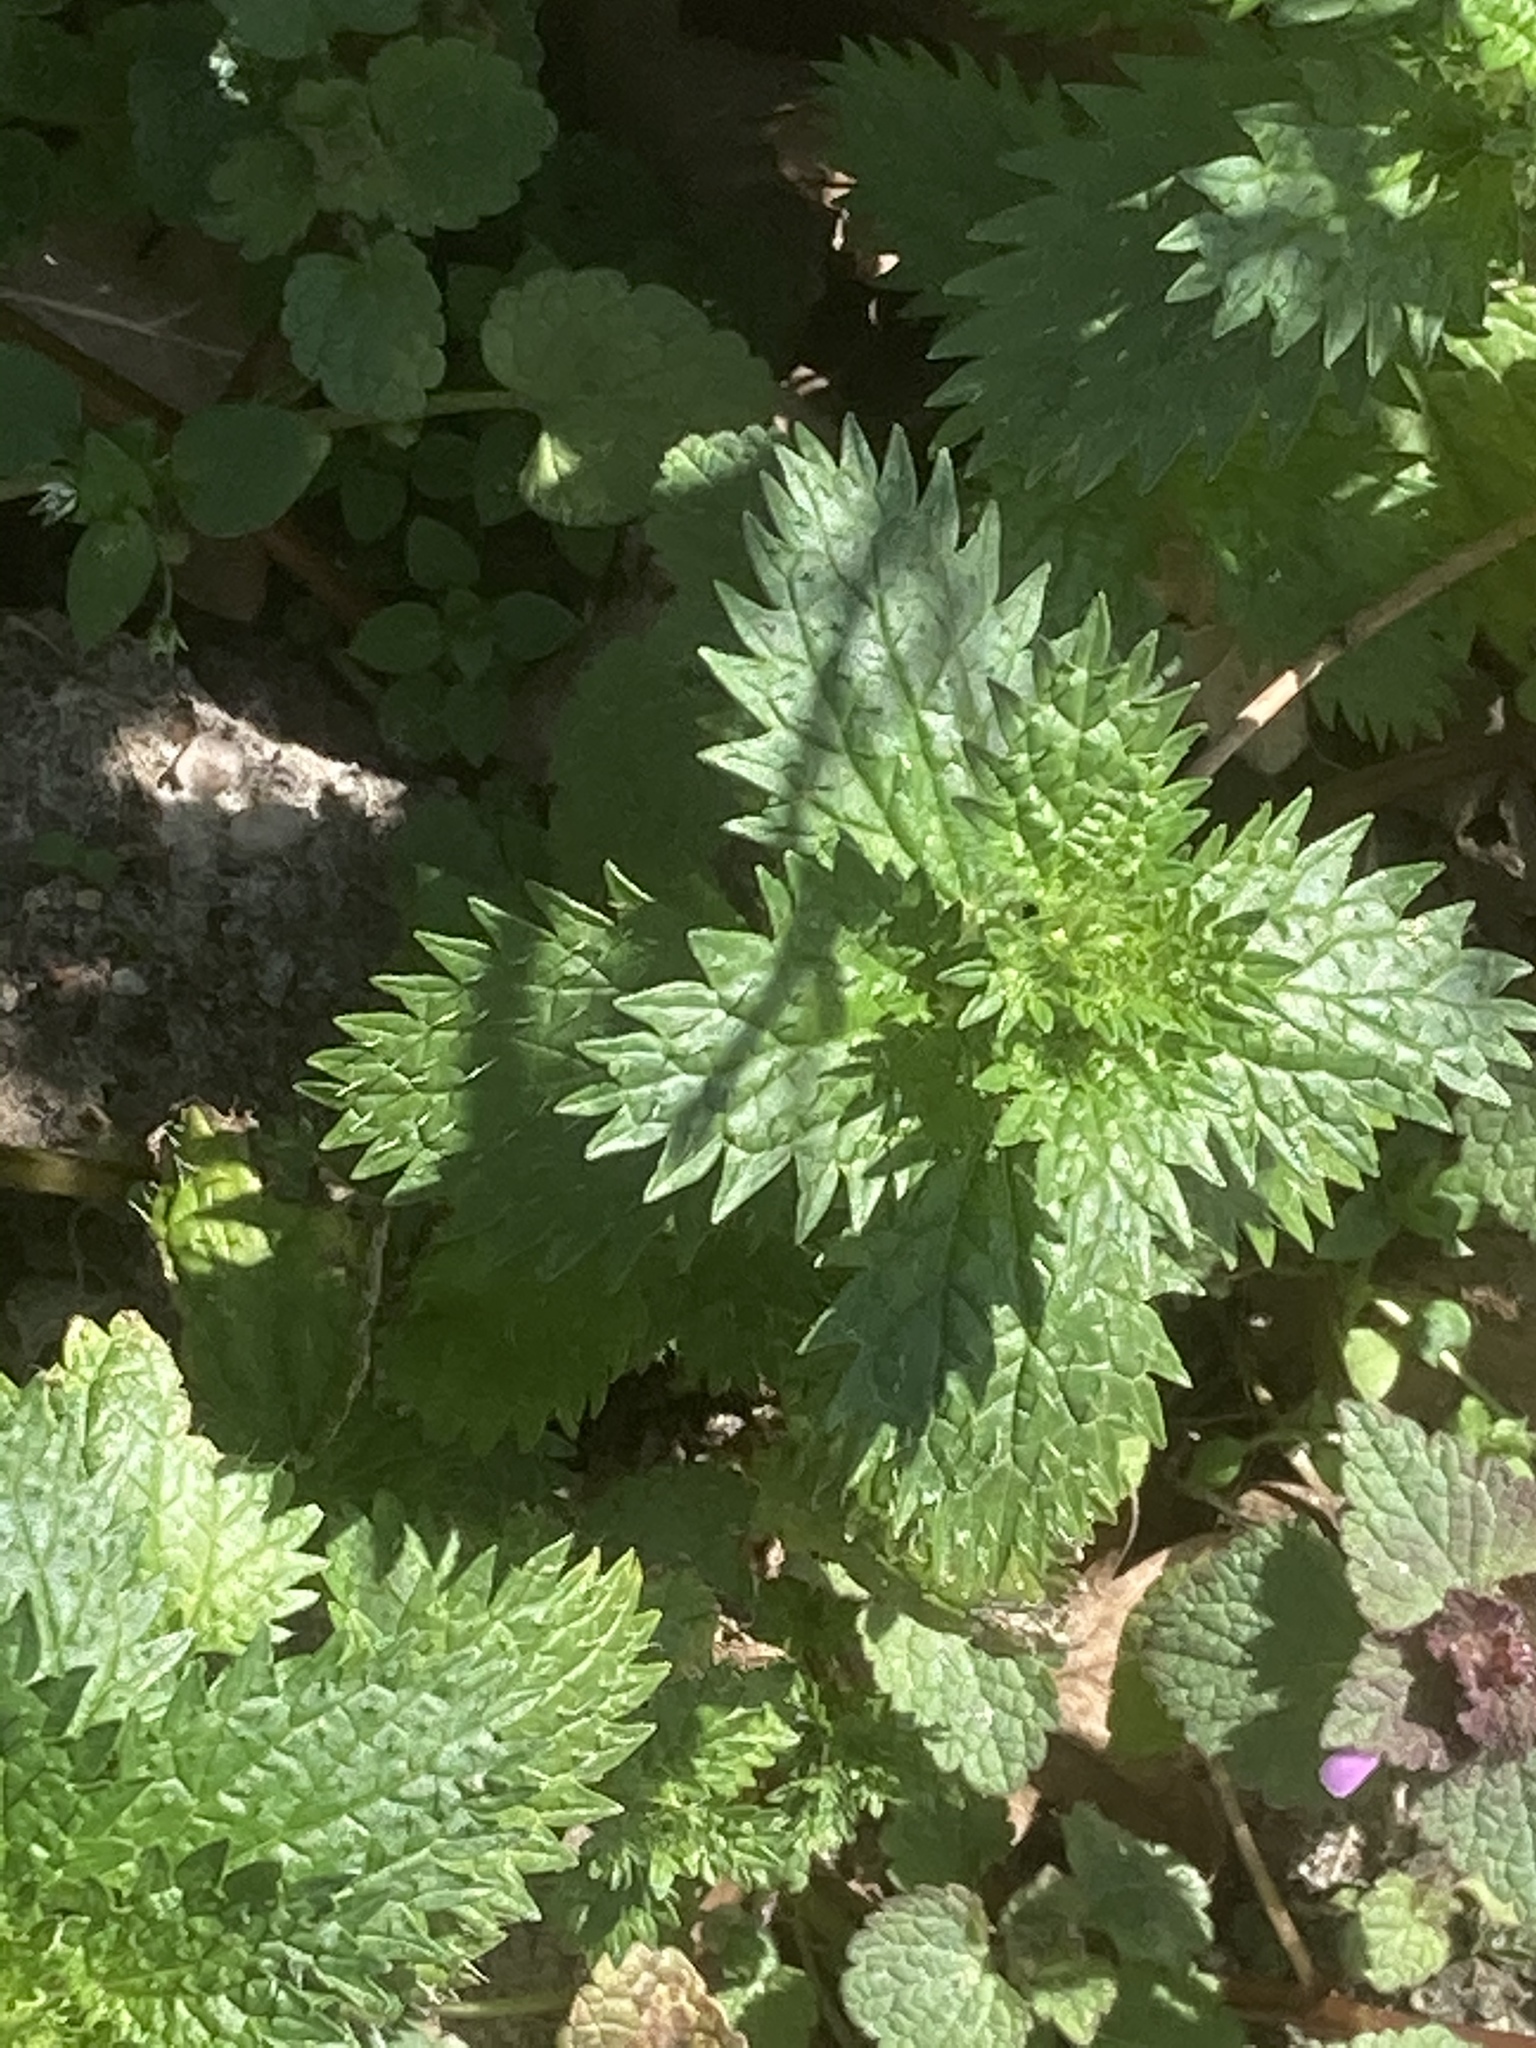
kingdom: Plantae
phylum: Tracheophyta
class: Magnoliopsida
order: Rosales
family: Urticaceae
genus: Urtica
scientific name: Urtica urens
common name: Dwarf nettle
